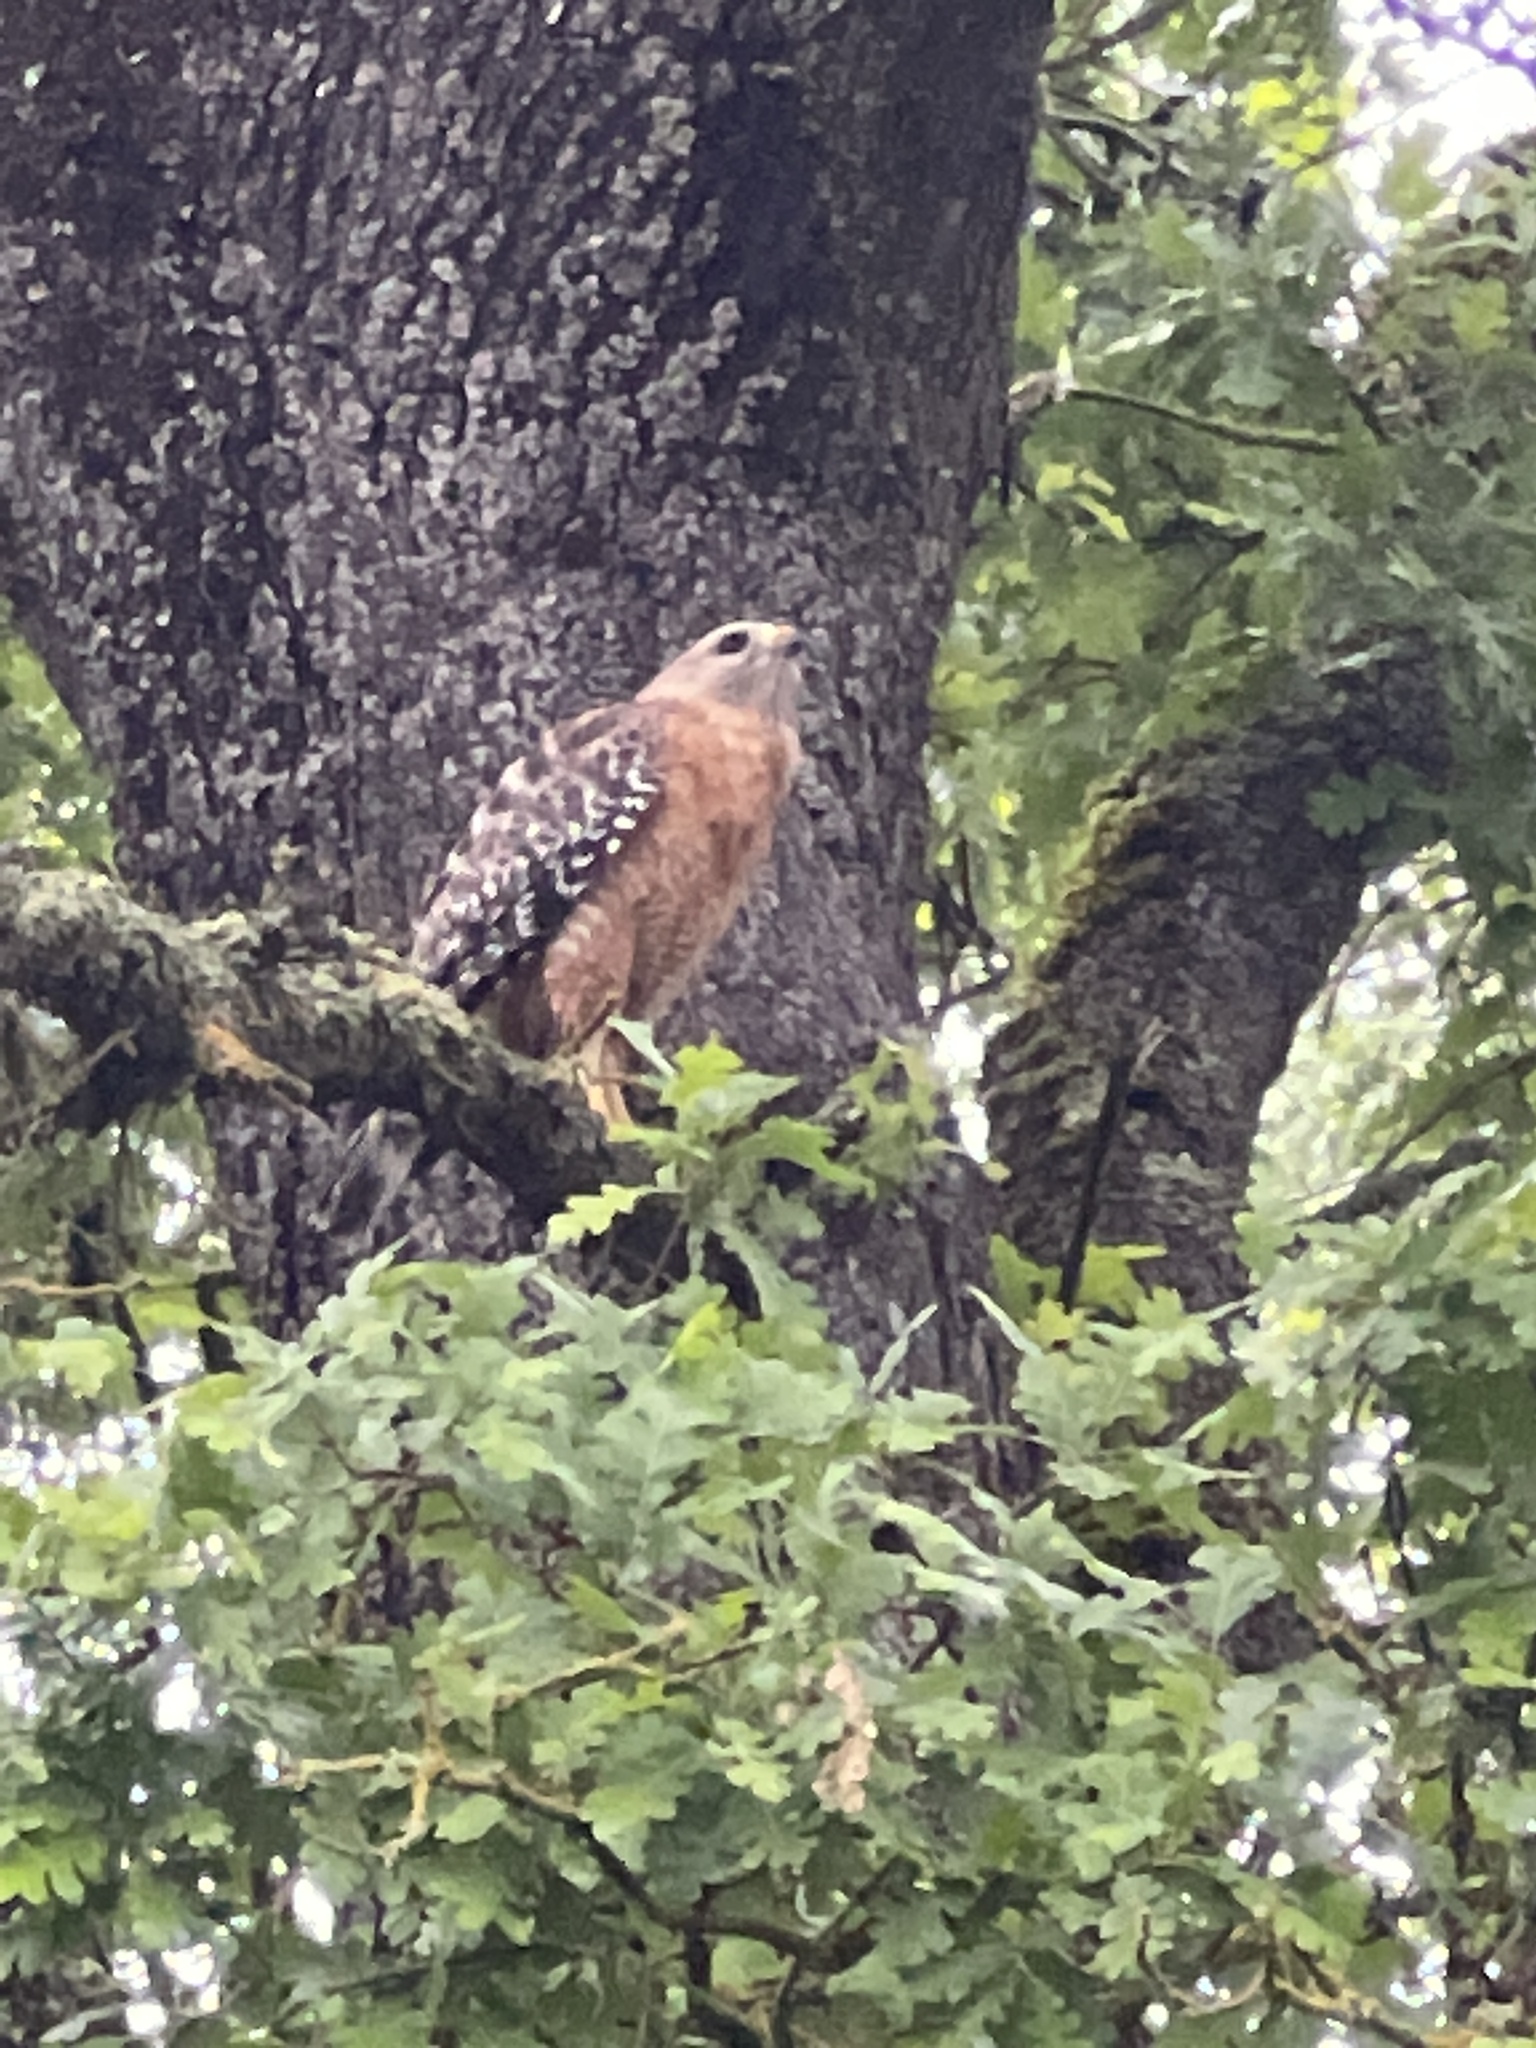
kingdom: Animalia
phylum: Chordata
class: Aves
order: Accipitriformes
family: Accipitridae
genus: Buteo
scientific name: Buteo lineatus
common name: Red-shouldered hawk
